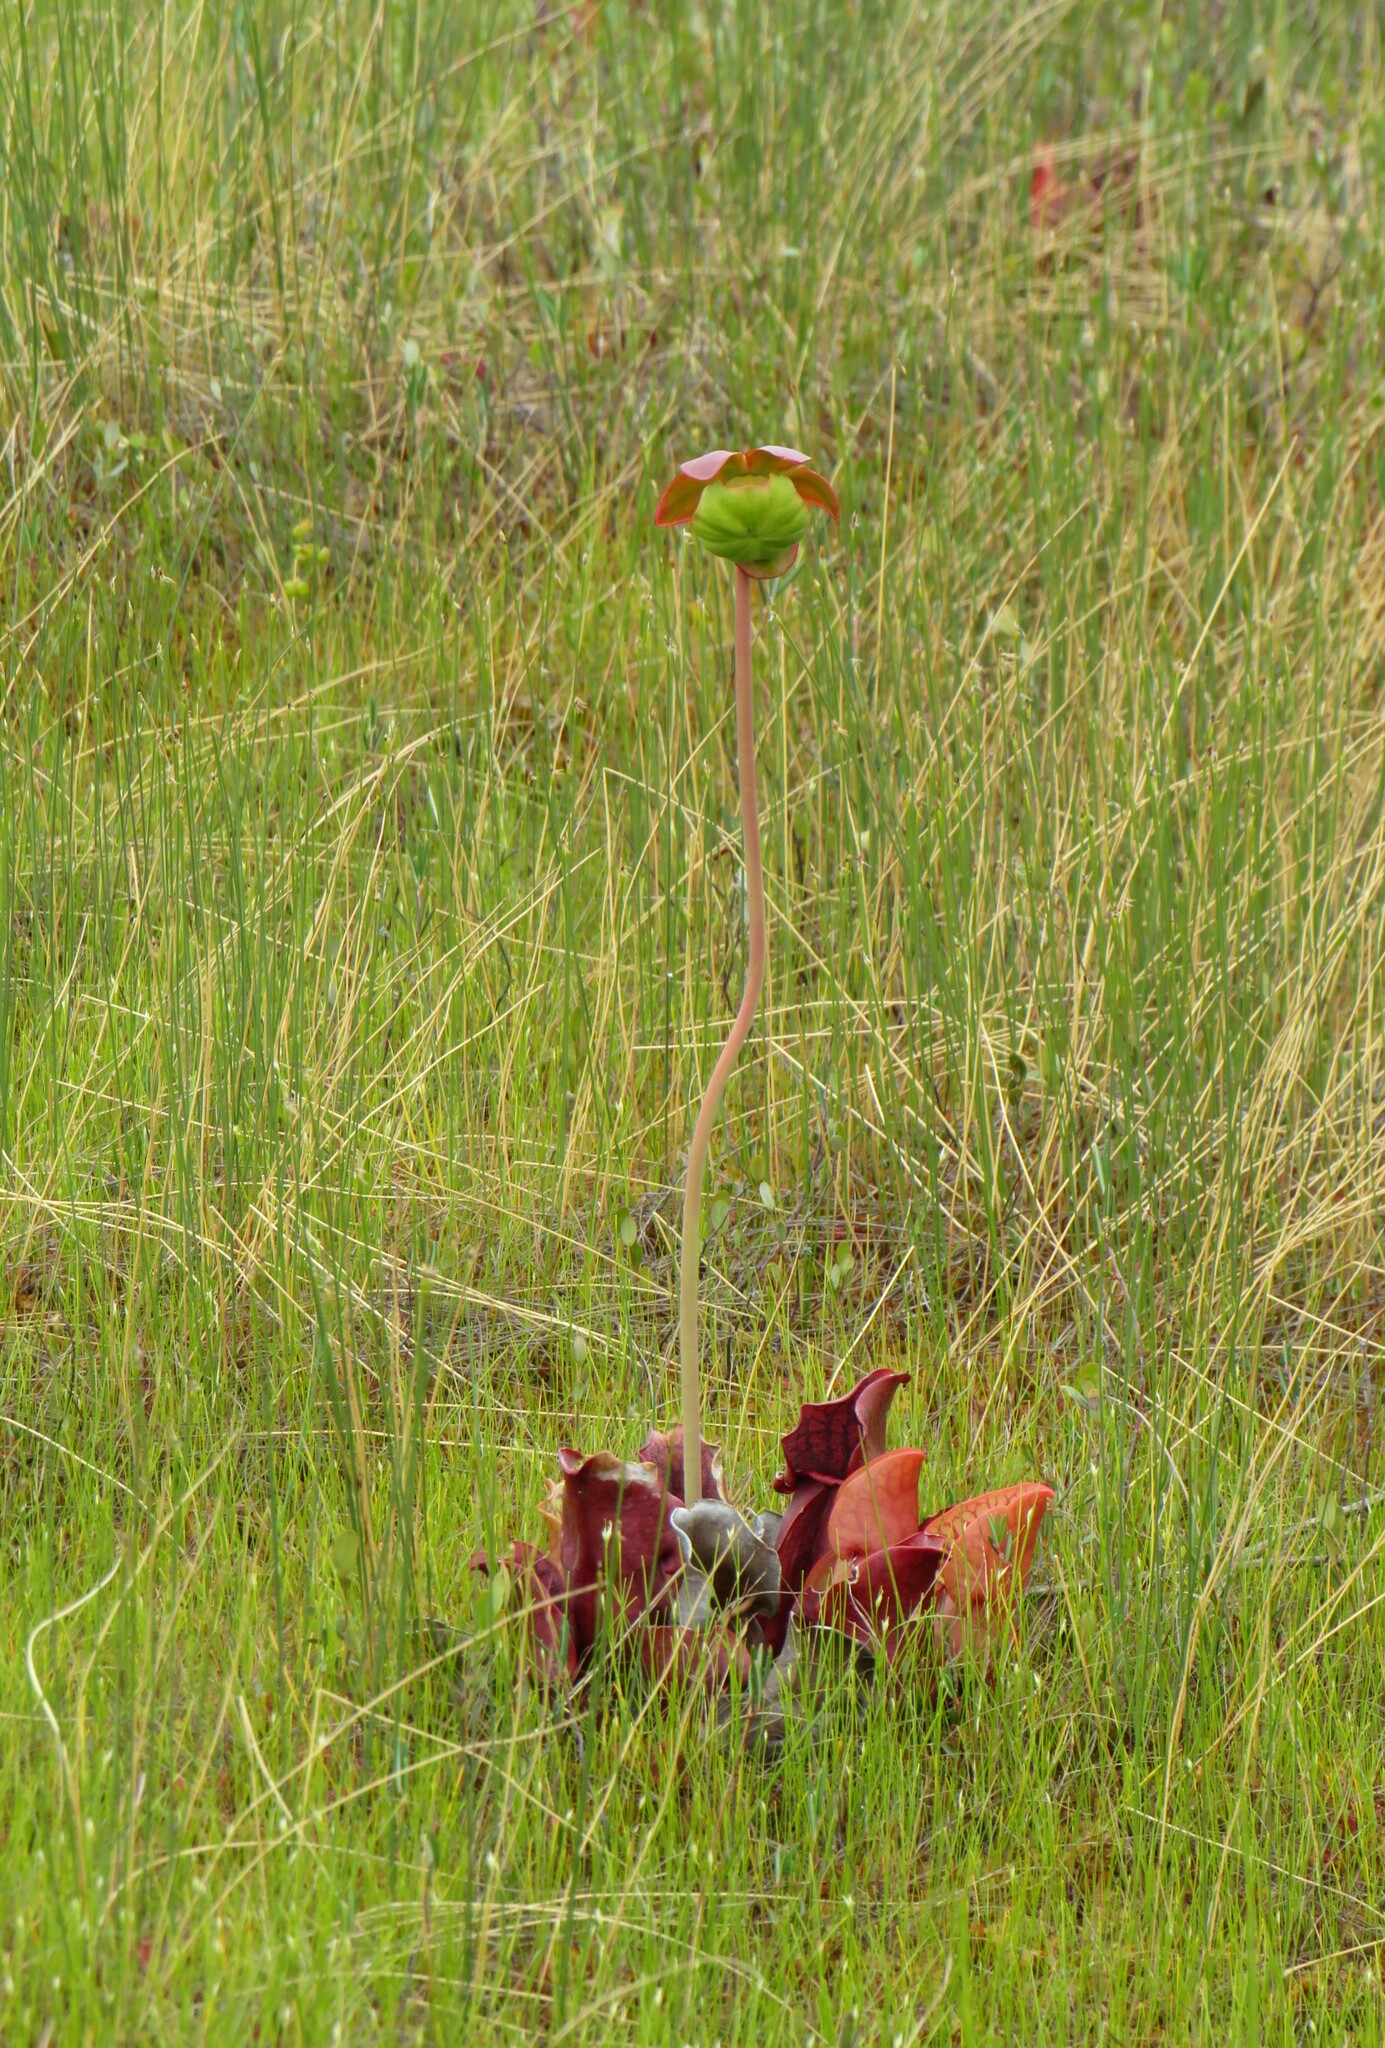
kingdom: Plantae
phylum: Tracheophyta
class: Magnoliopsida
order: Ericales
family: Sarraceniaceae
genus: Sarracenia
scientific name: Sarracenia purpurea
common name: Pitcherplant
